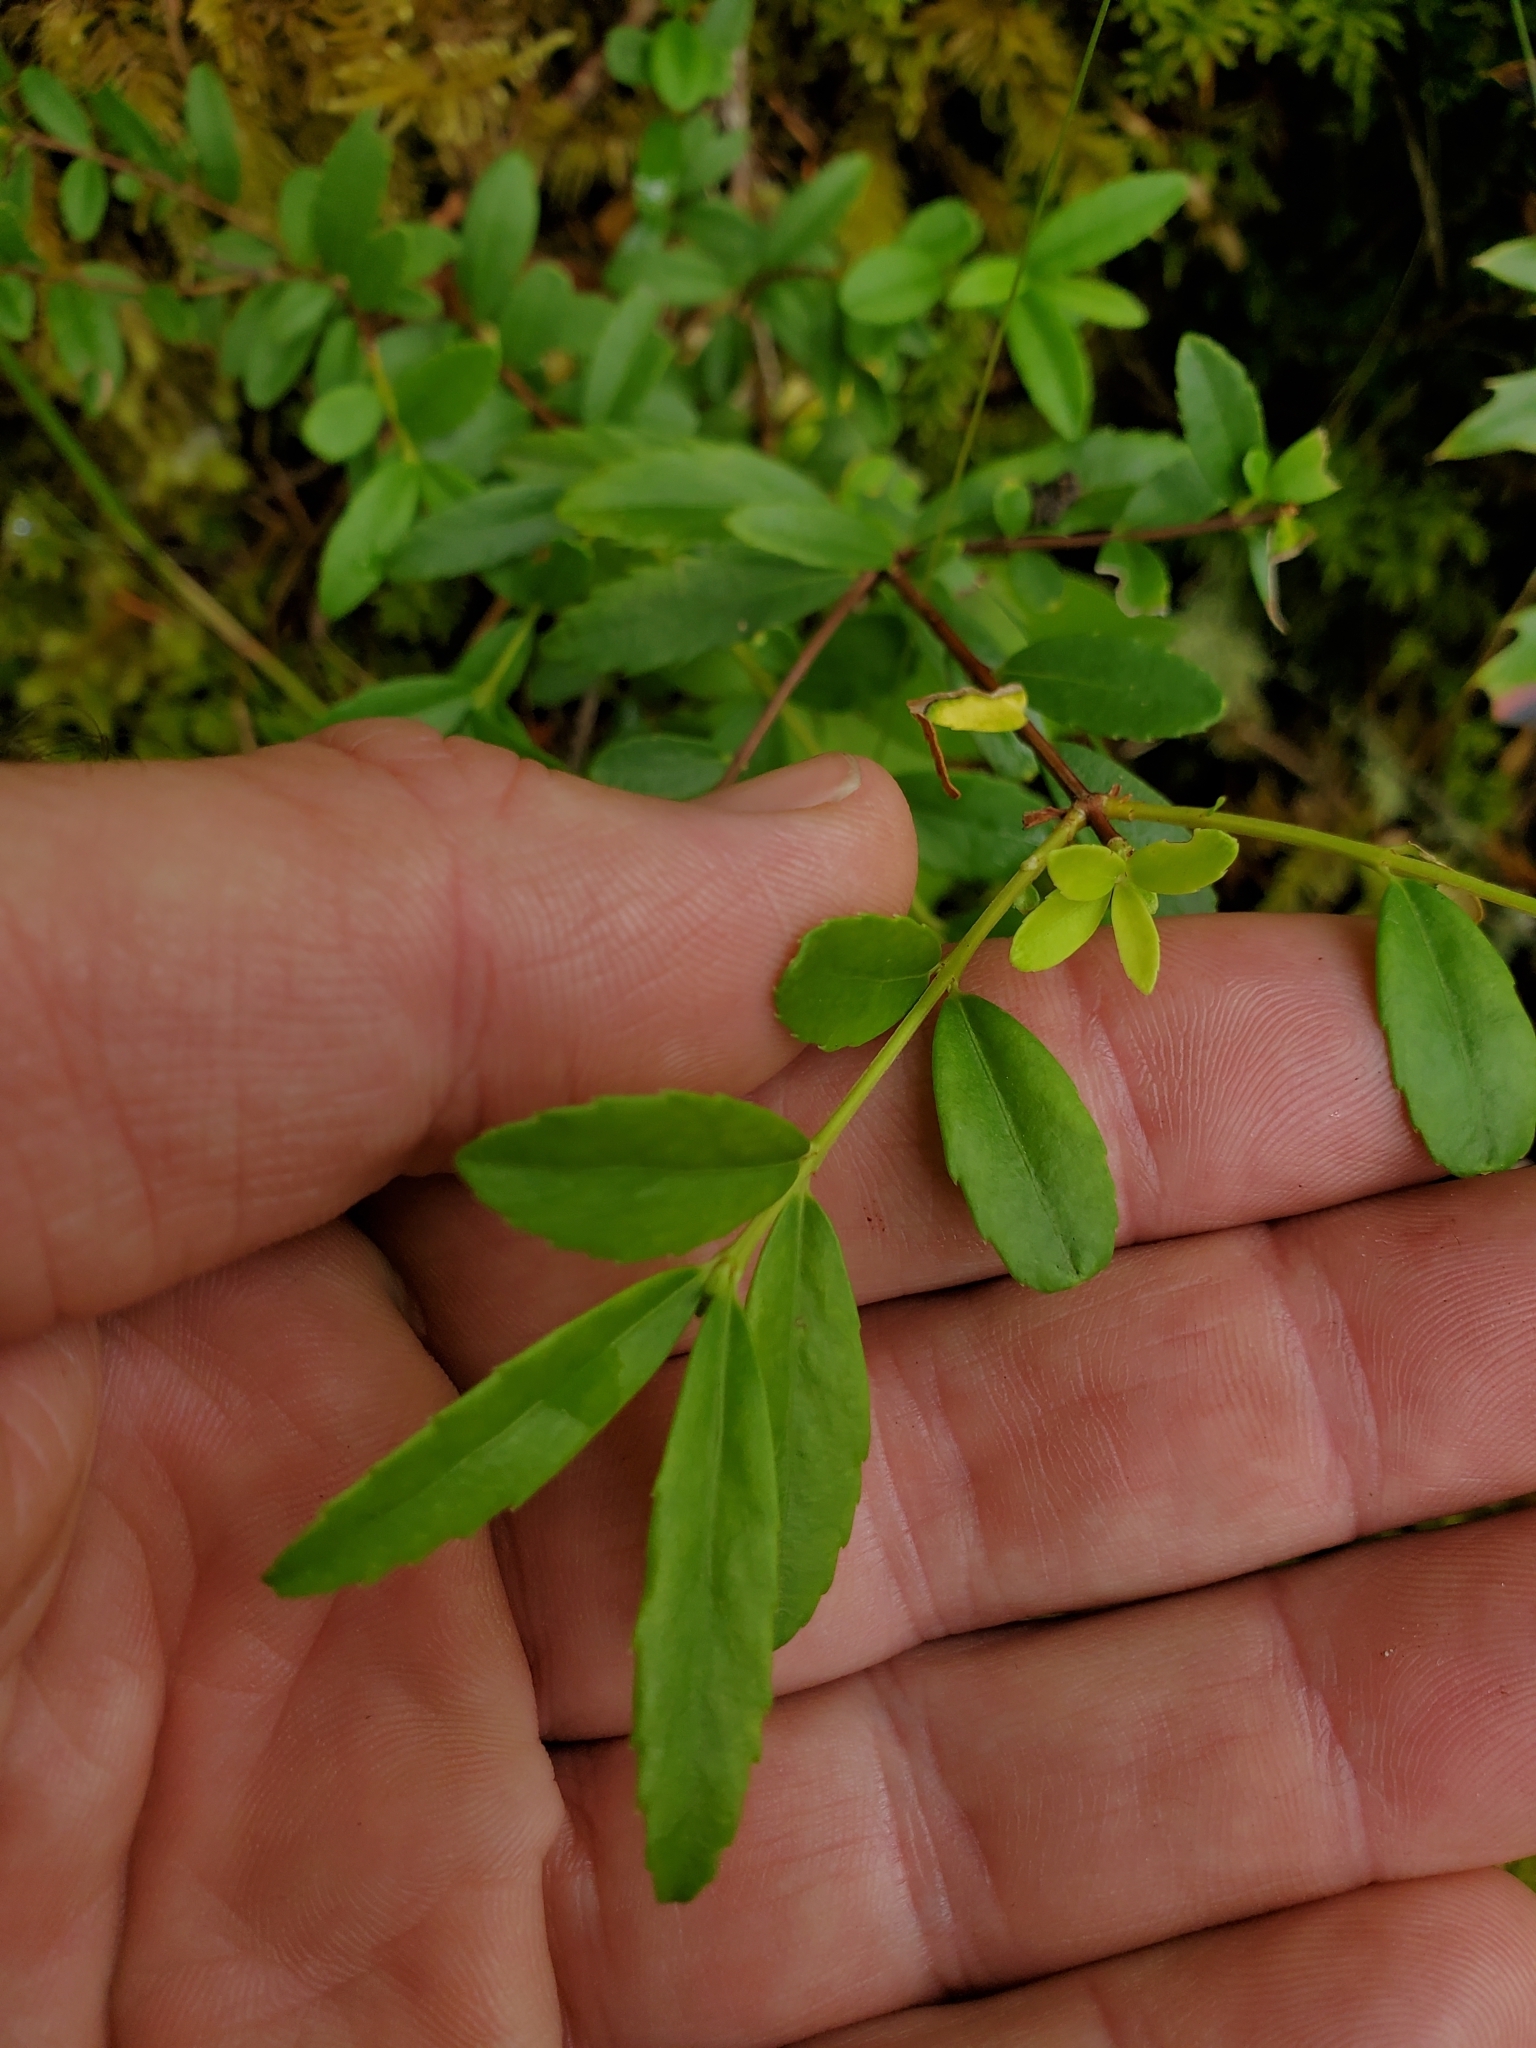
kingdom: Plantae
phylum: Tracheophyta
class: Magnoliopsida
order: Celastrales
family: Celastraceae
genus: Paxistima
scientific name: Paxistima myrsinites
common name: Mountain-lover
